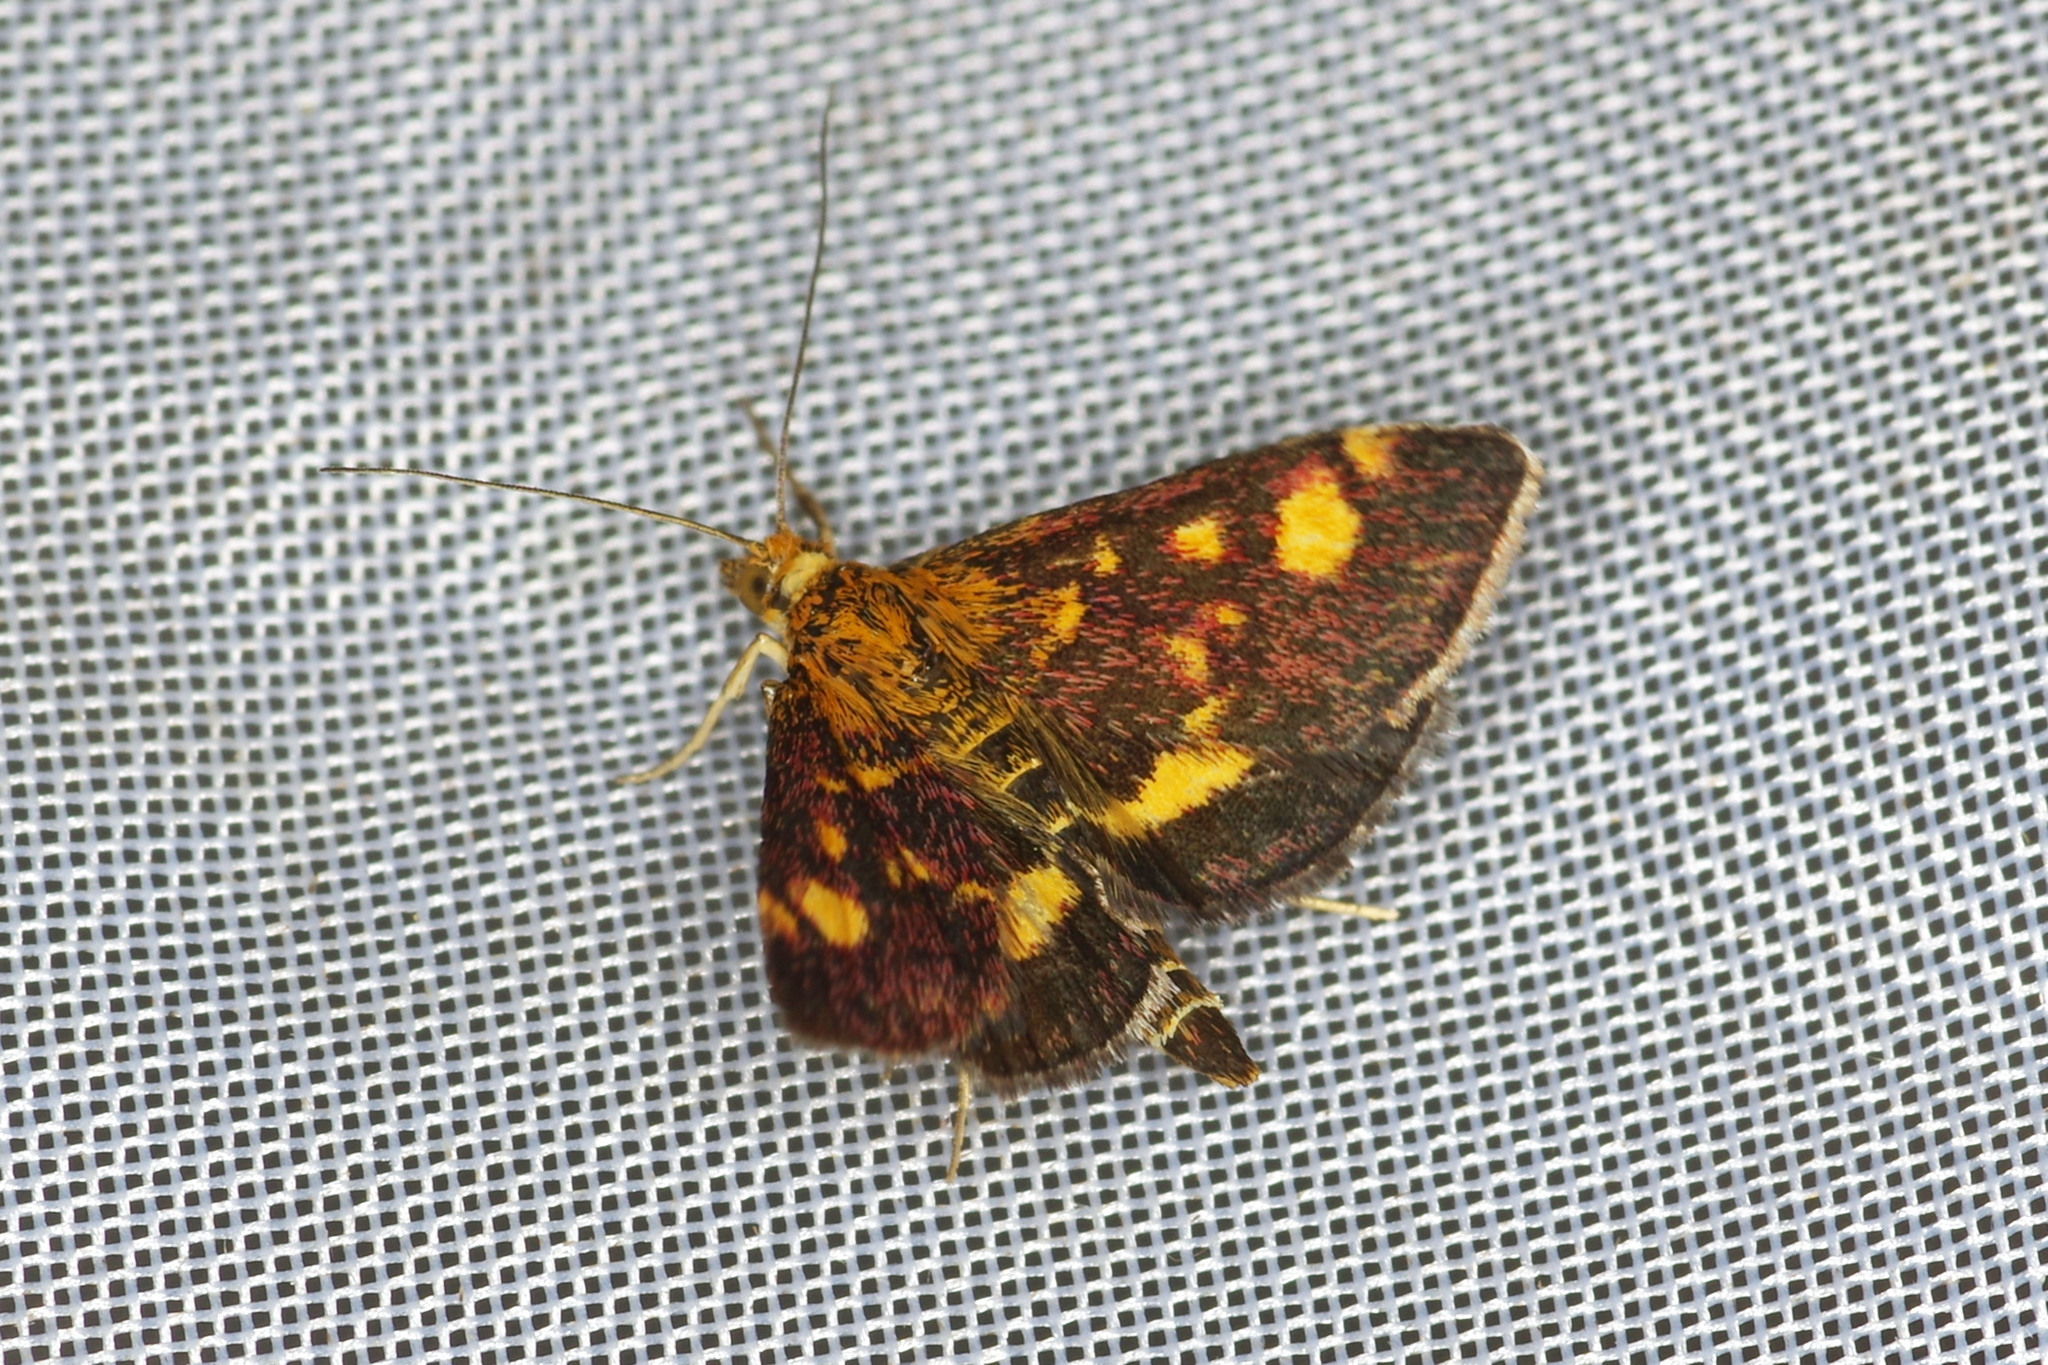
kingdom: Animalia
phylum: Arthropoda
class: Insecta
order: Lepidoptera
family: Crambidae
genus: Pyrausta
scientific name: Pyrausta aurata
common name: Small purple & gold
